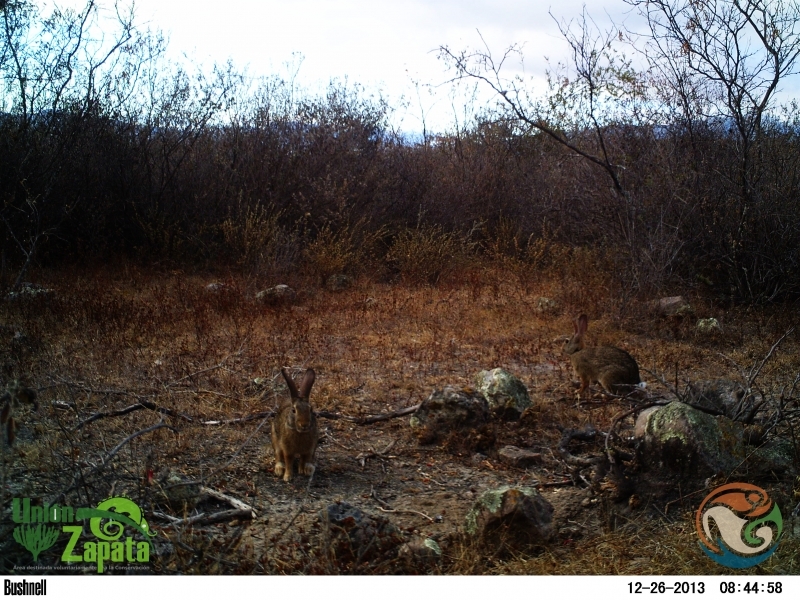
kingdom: Animalia
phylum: Chordata
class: Mammalia
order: Lagomorpha
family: Leporidae
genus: Sylvilagus
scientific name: Sylvilagus cunicularius
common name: Mexican cottontail
